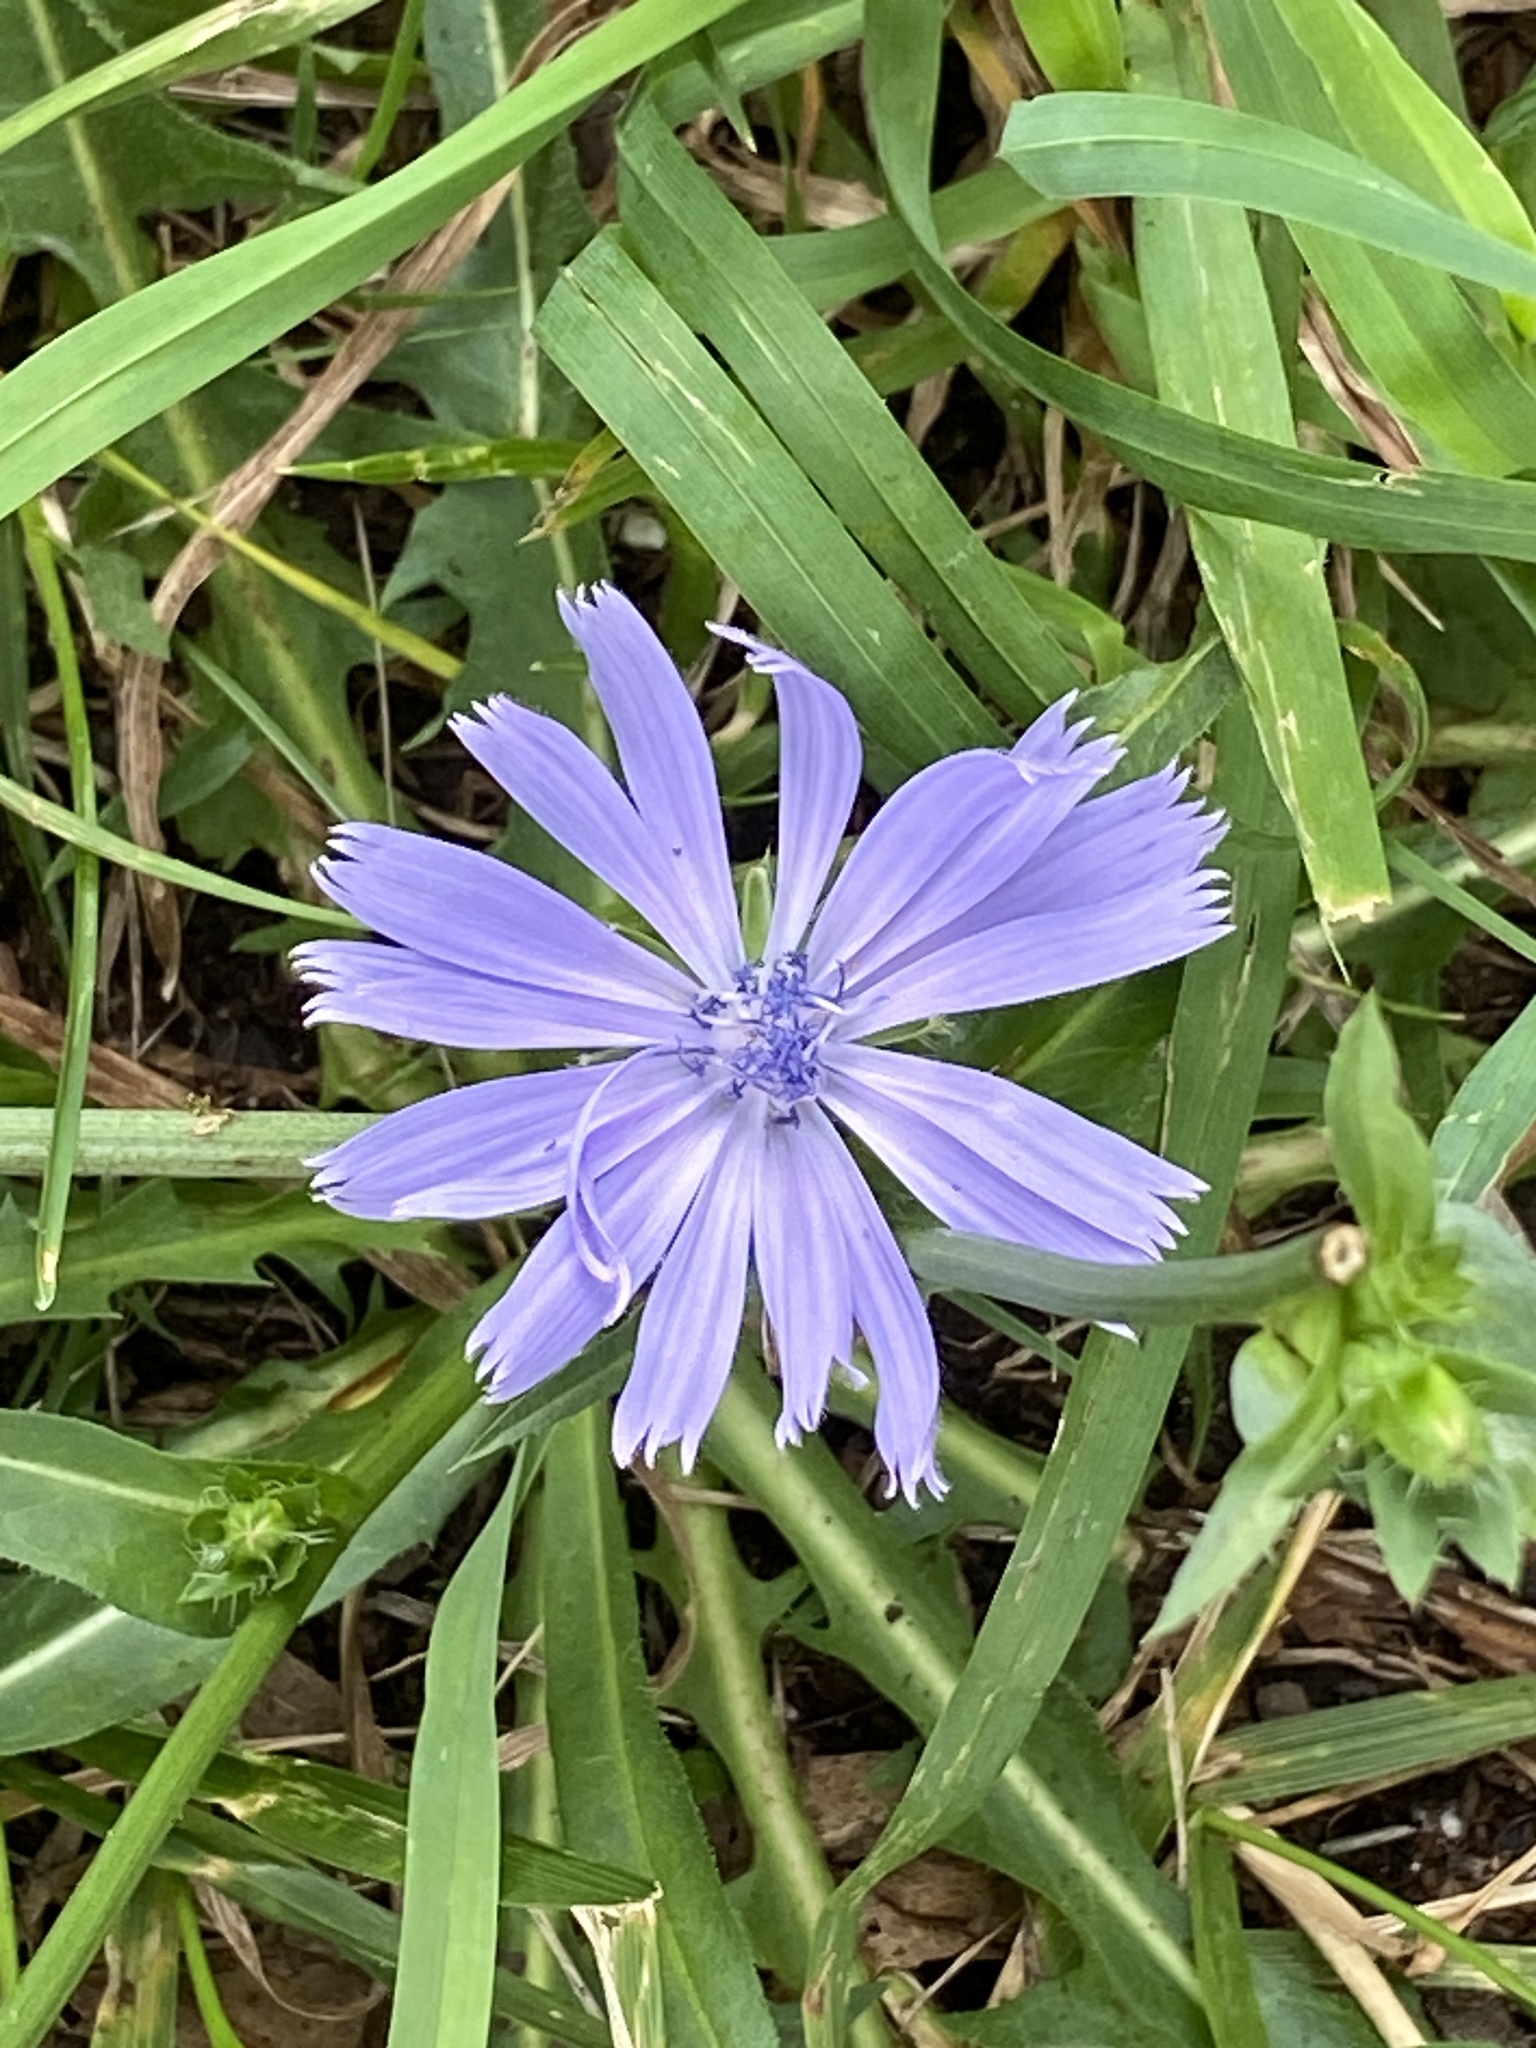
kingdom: Plantae
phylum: Tracheophyta
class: Magnoliopsida
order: Asterales
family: Asteraceae
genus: Cichorium
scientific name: Cichorium intybus
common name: Chicory
